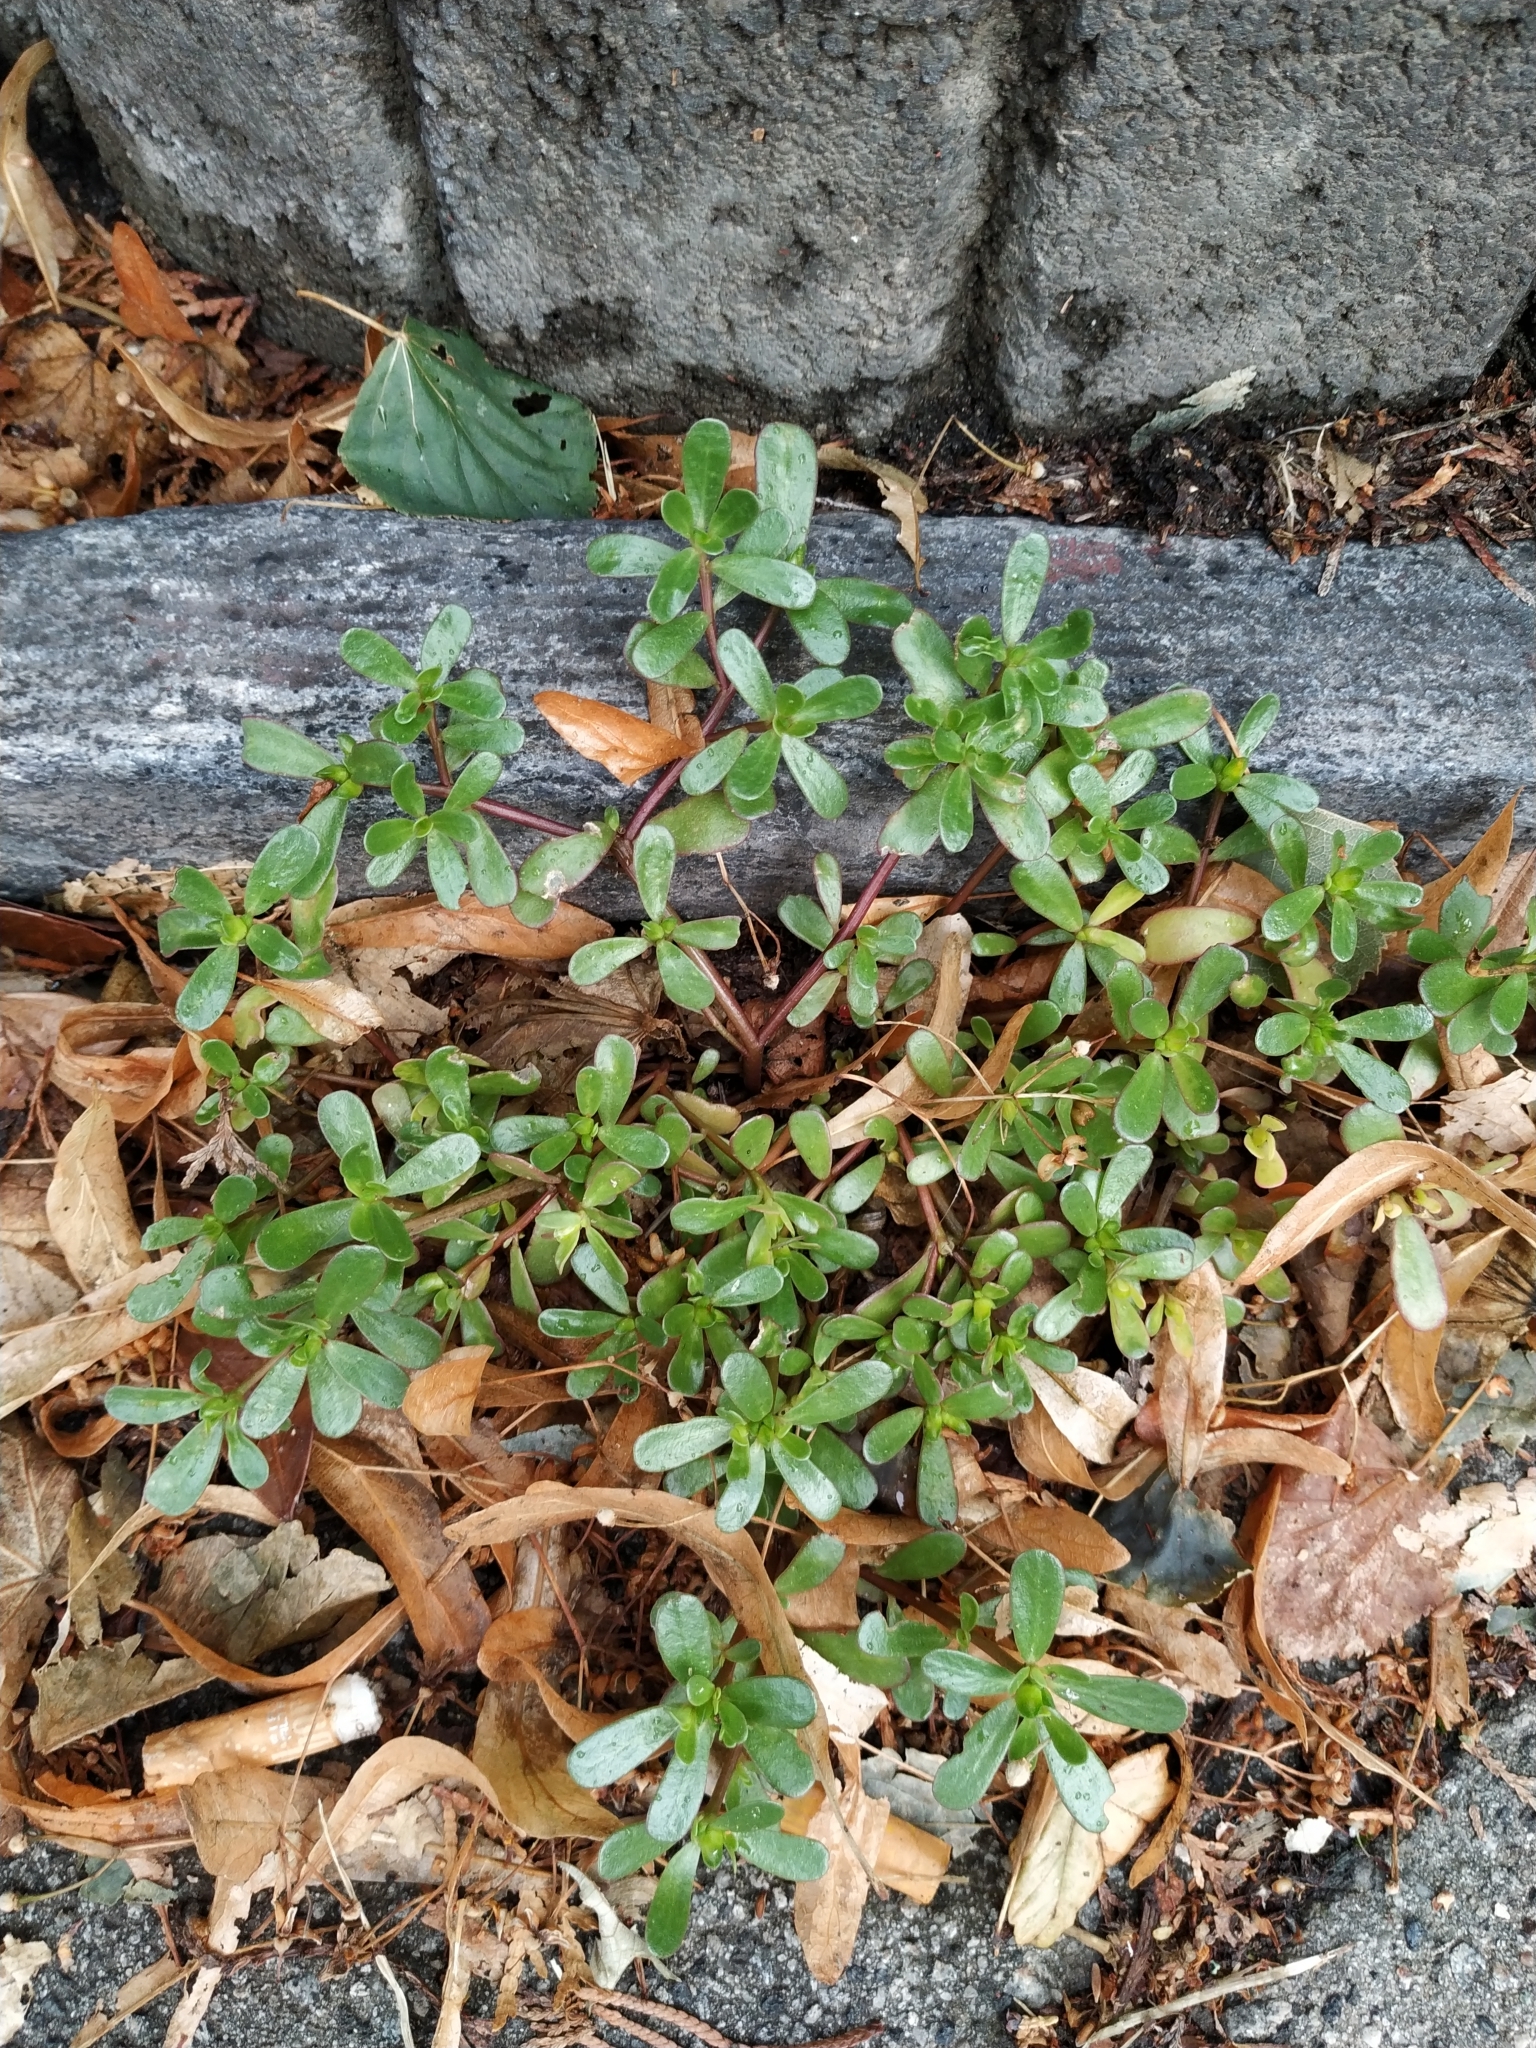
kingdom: Plantae
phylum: Tracheophyta
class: Magnoliopsida
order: Caryophyllales
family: Portulacaceae
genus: Portulaca
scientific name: Portulaca oleracea
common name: Common purslane
